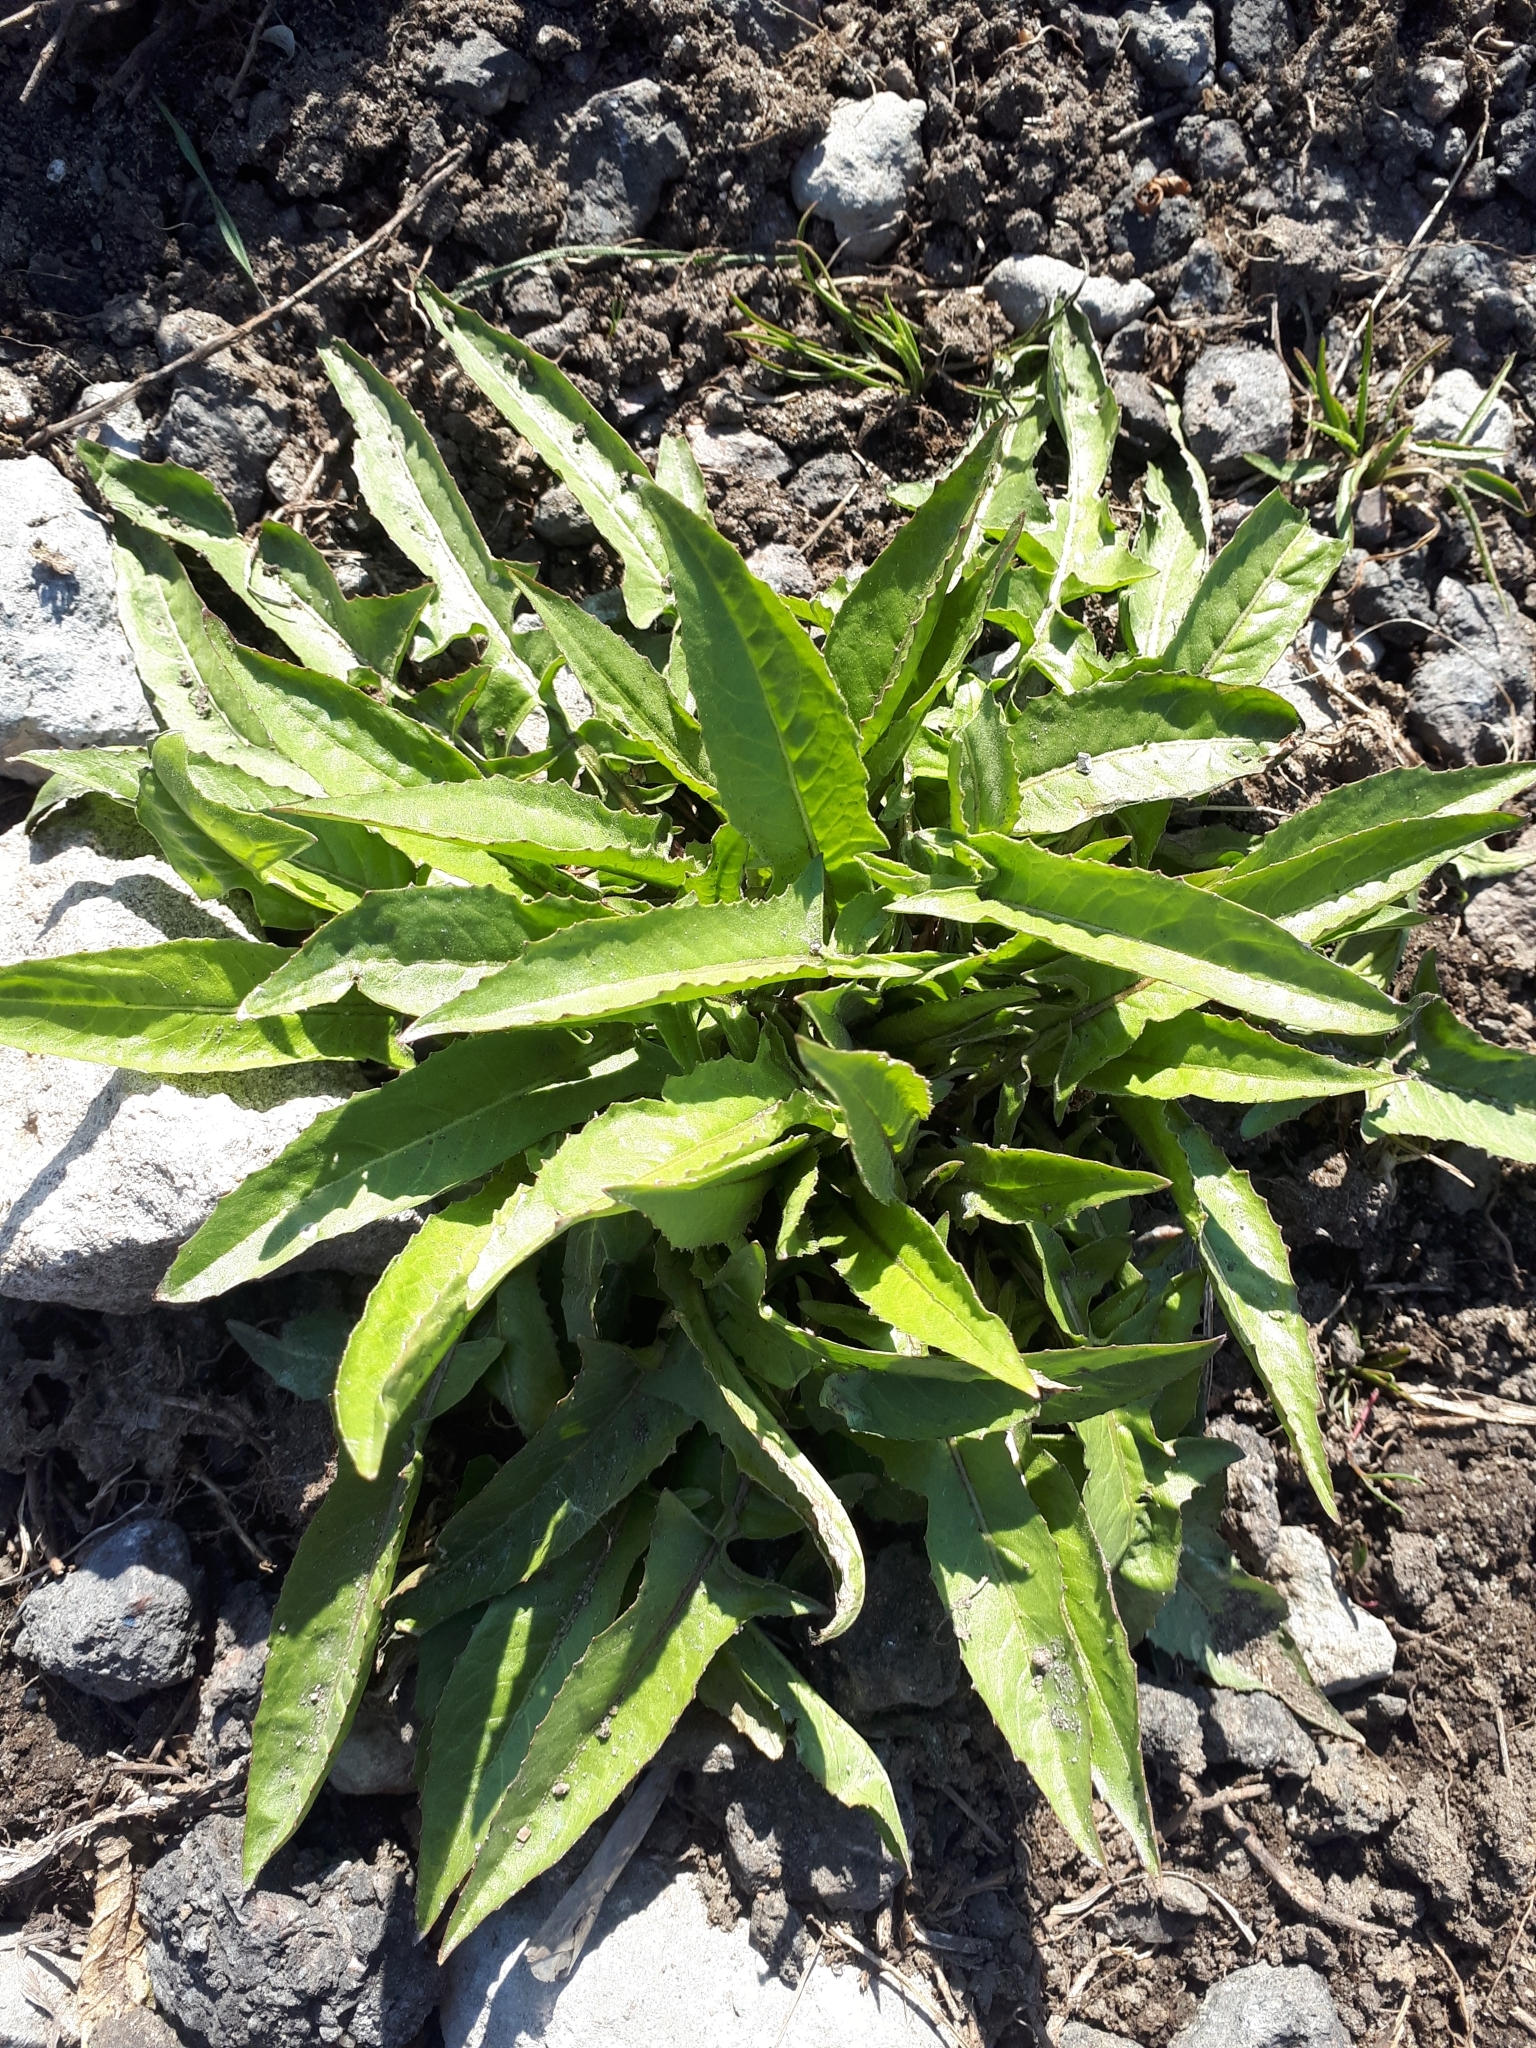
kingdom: Plantae
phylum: Tracheophyta
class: Magnoliopsida
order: Brassicales
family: Brassicaceae
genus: Bunias
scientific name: Bunias orientalis
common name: Warty-cabbage
